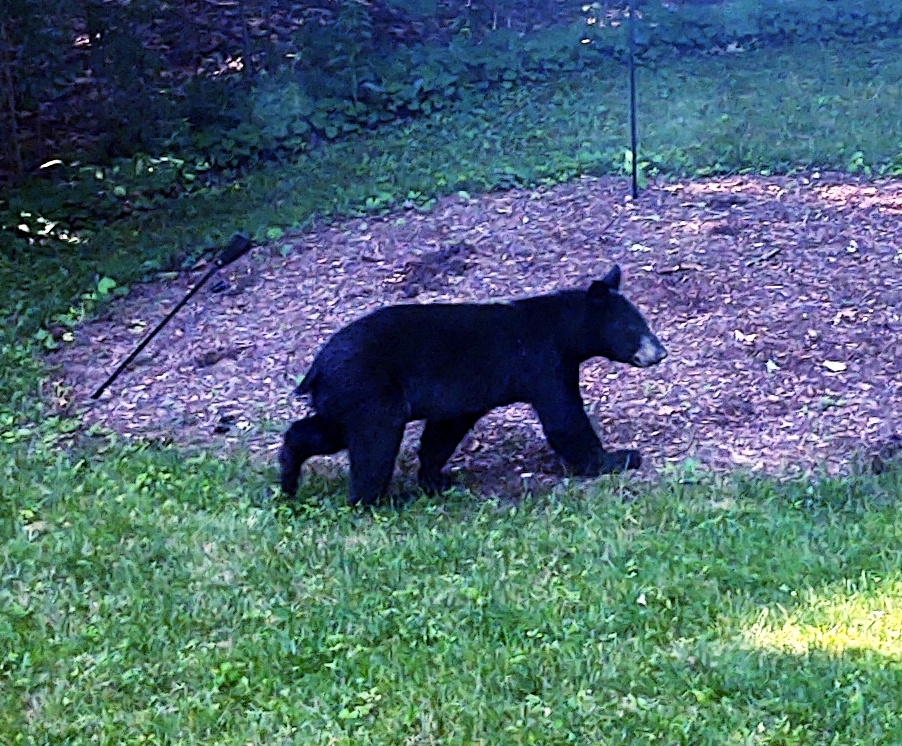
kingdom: Animalia
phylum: Chordata
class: Mammalia
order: Carnivora
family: Ursidae
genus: Ursus
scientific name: Ursus americanus
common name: American black bear
